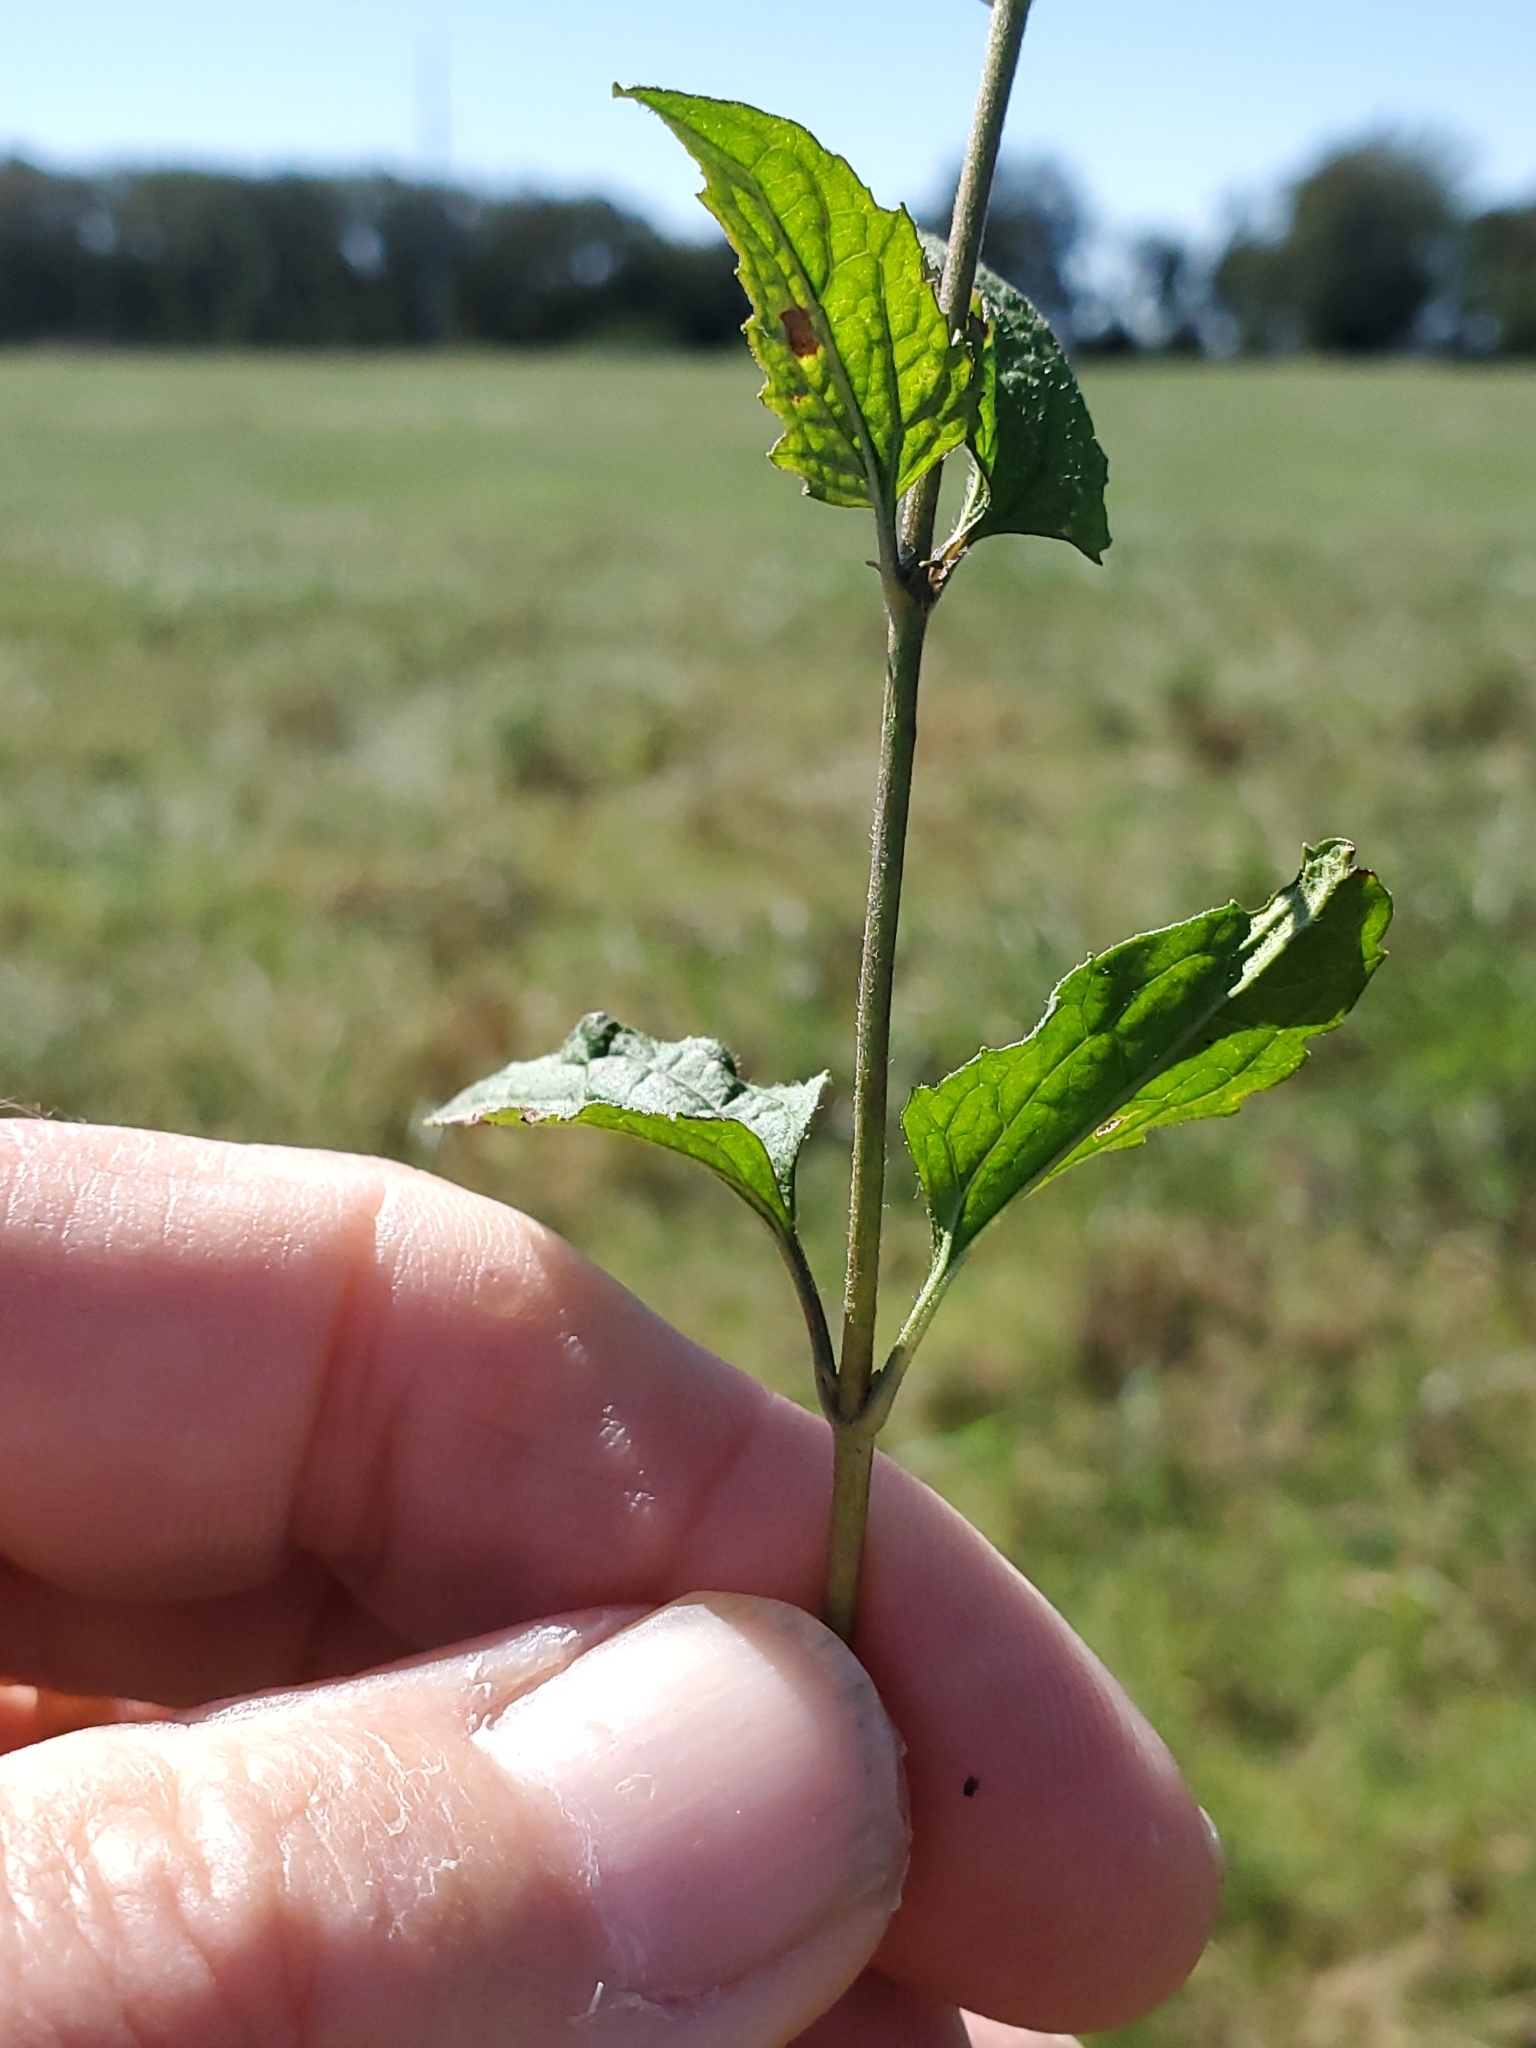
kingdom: Plantae
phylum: Tracheophyta
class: Magnoliopsida
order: Asterales
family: Asteraceae
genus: Conoclinium
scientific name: Conoclinium coelestinum
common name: Blue mistflower
